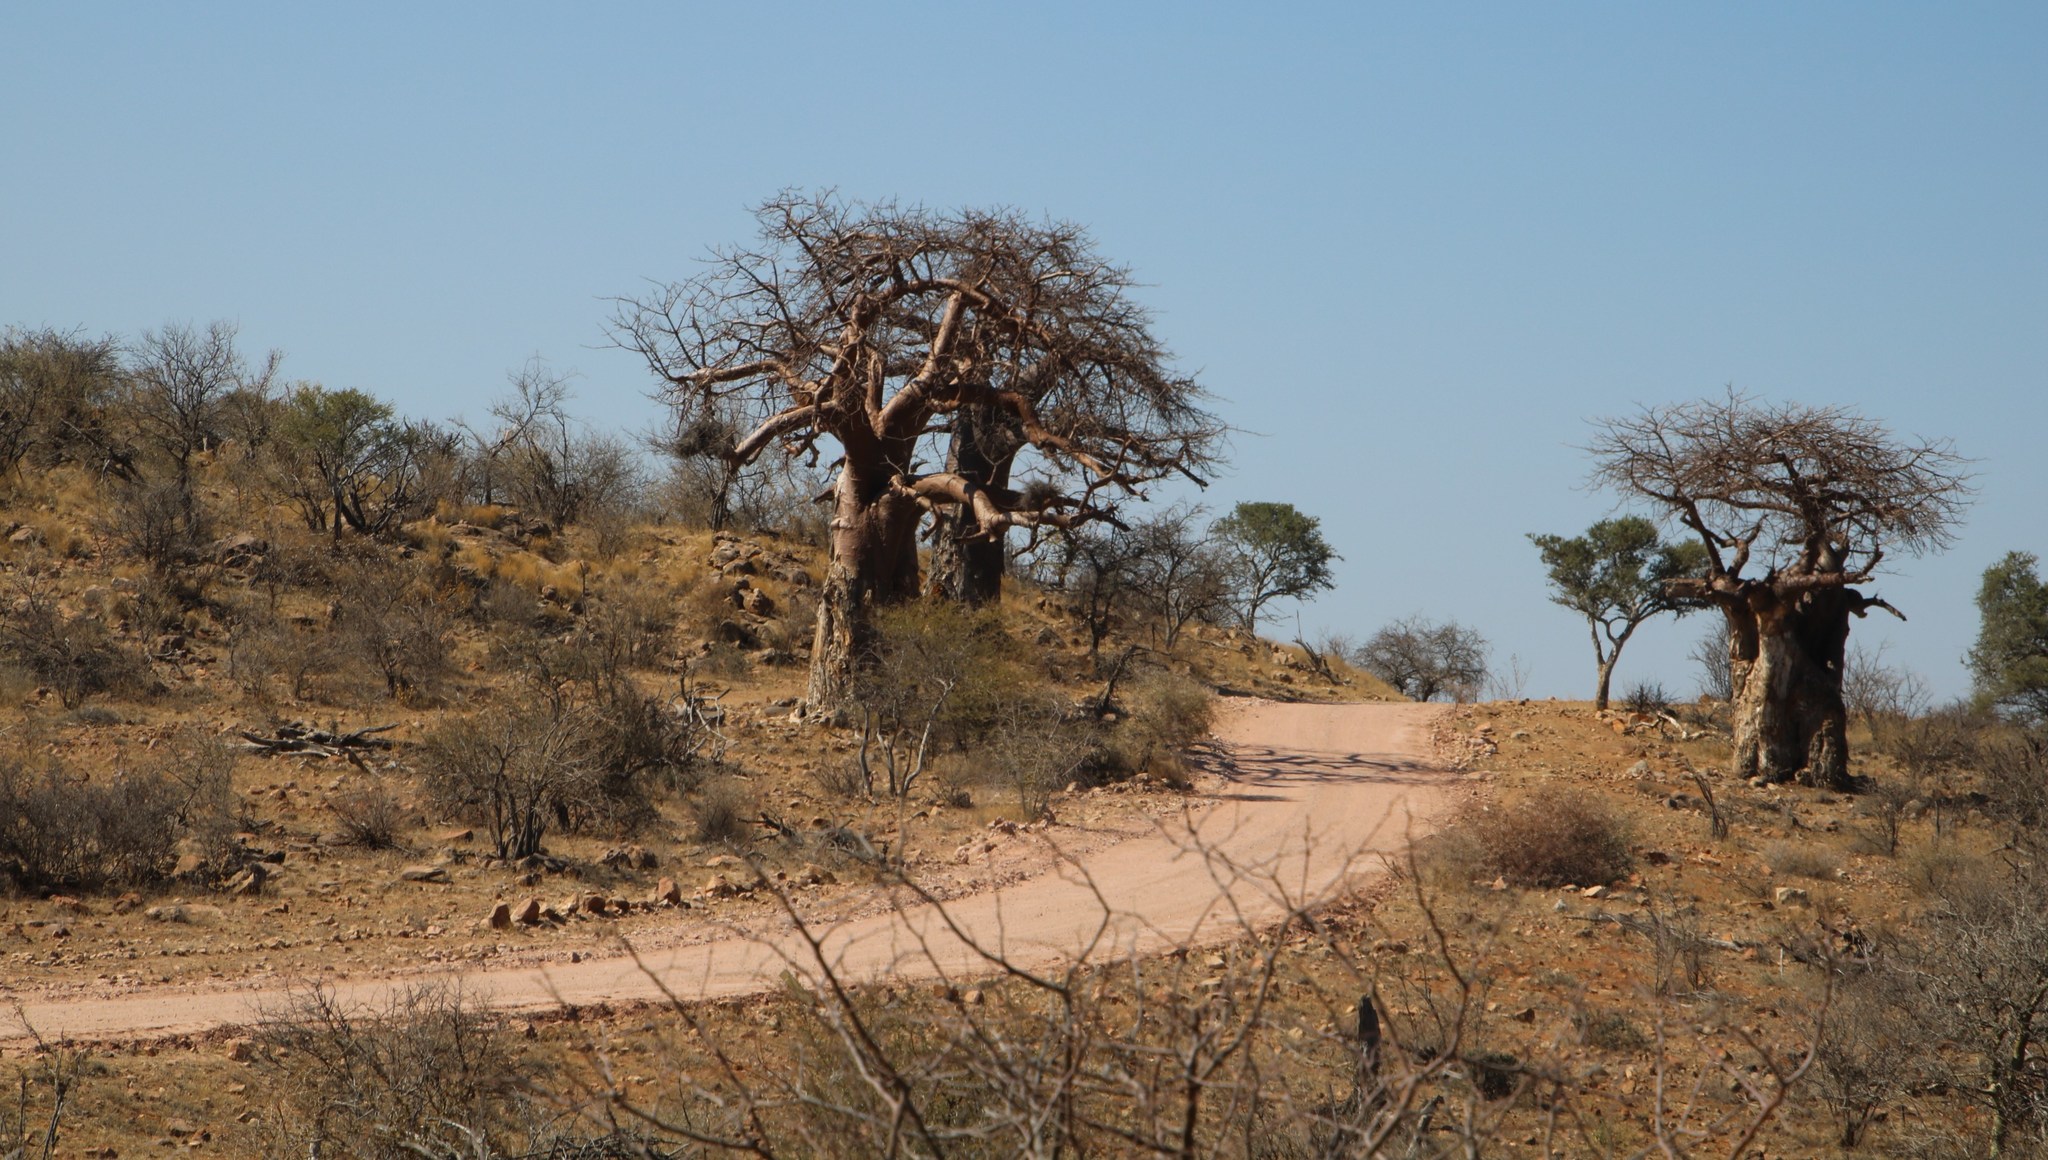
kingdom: Plantae
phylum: Tracheophyta
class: Magnoliopsida
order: Malvales
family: Malvaceae
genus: Adansonia
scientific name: Adansonia digitata
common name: Dead-rat-tree
